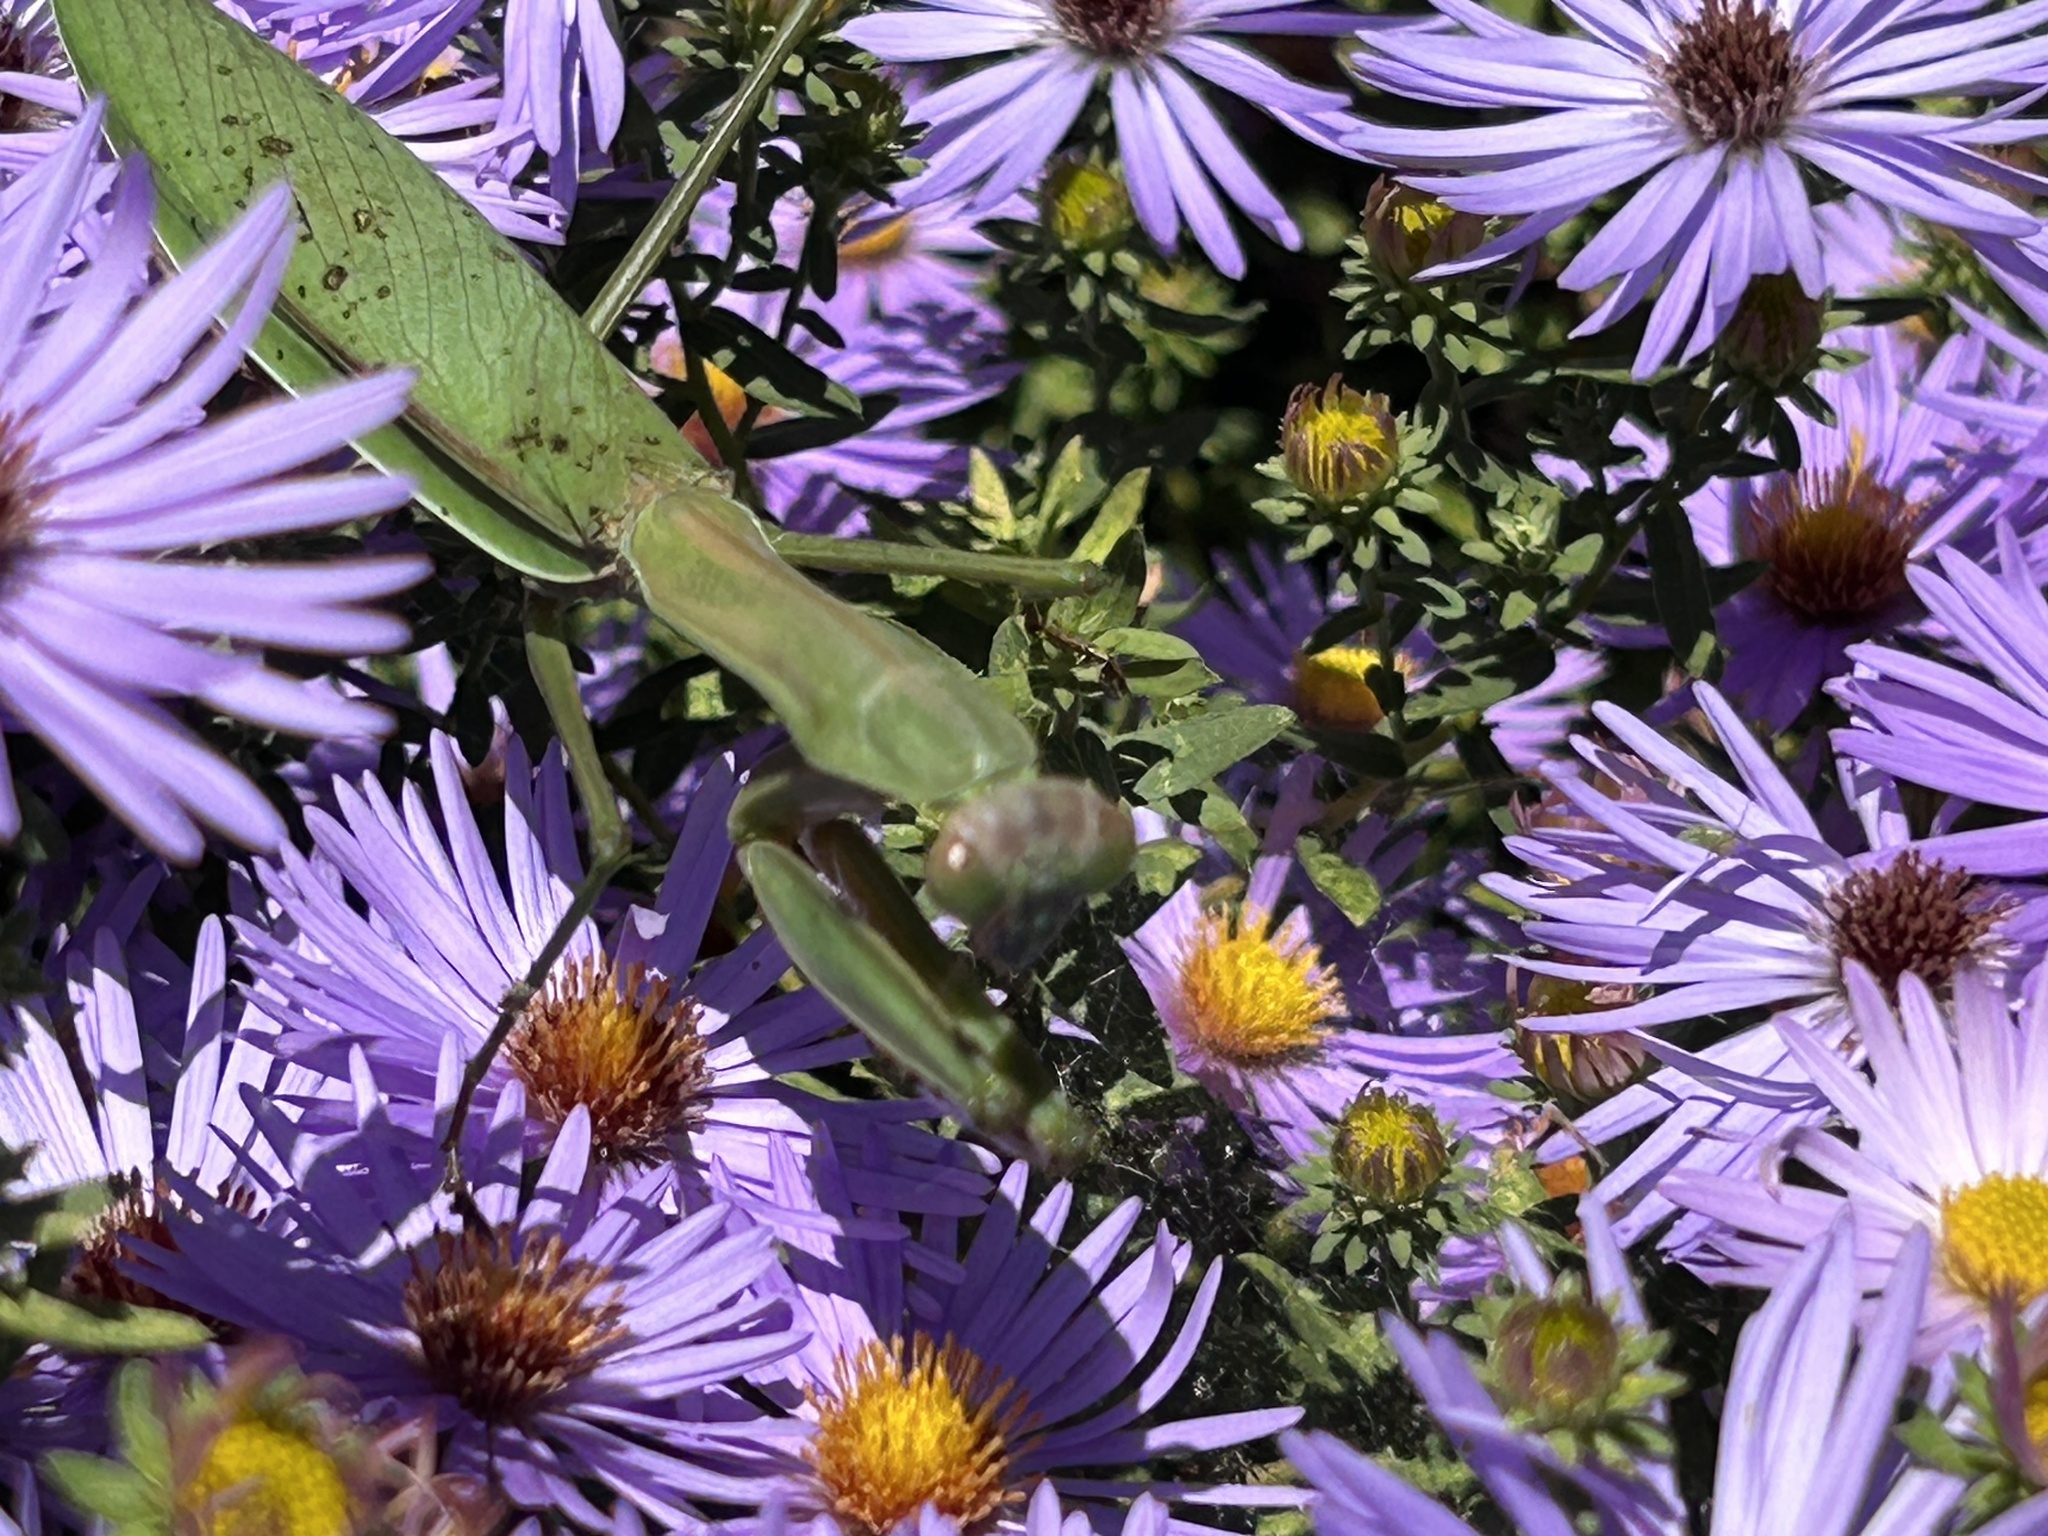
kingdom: Animalia
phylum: Arthropoda
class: Insecta
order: Mantodea
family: Mantidae
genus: Tenodera
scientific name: Tenodera sinensis
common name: Chinese mantis
